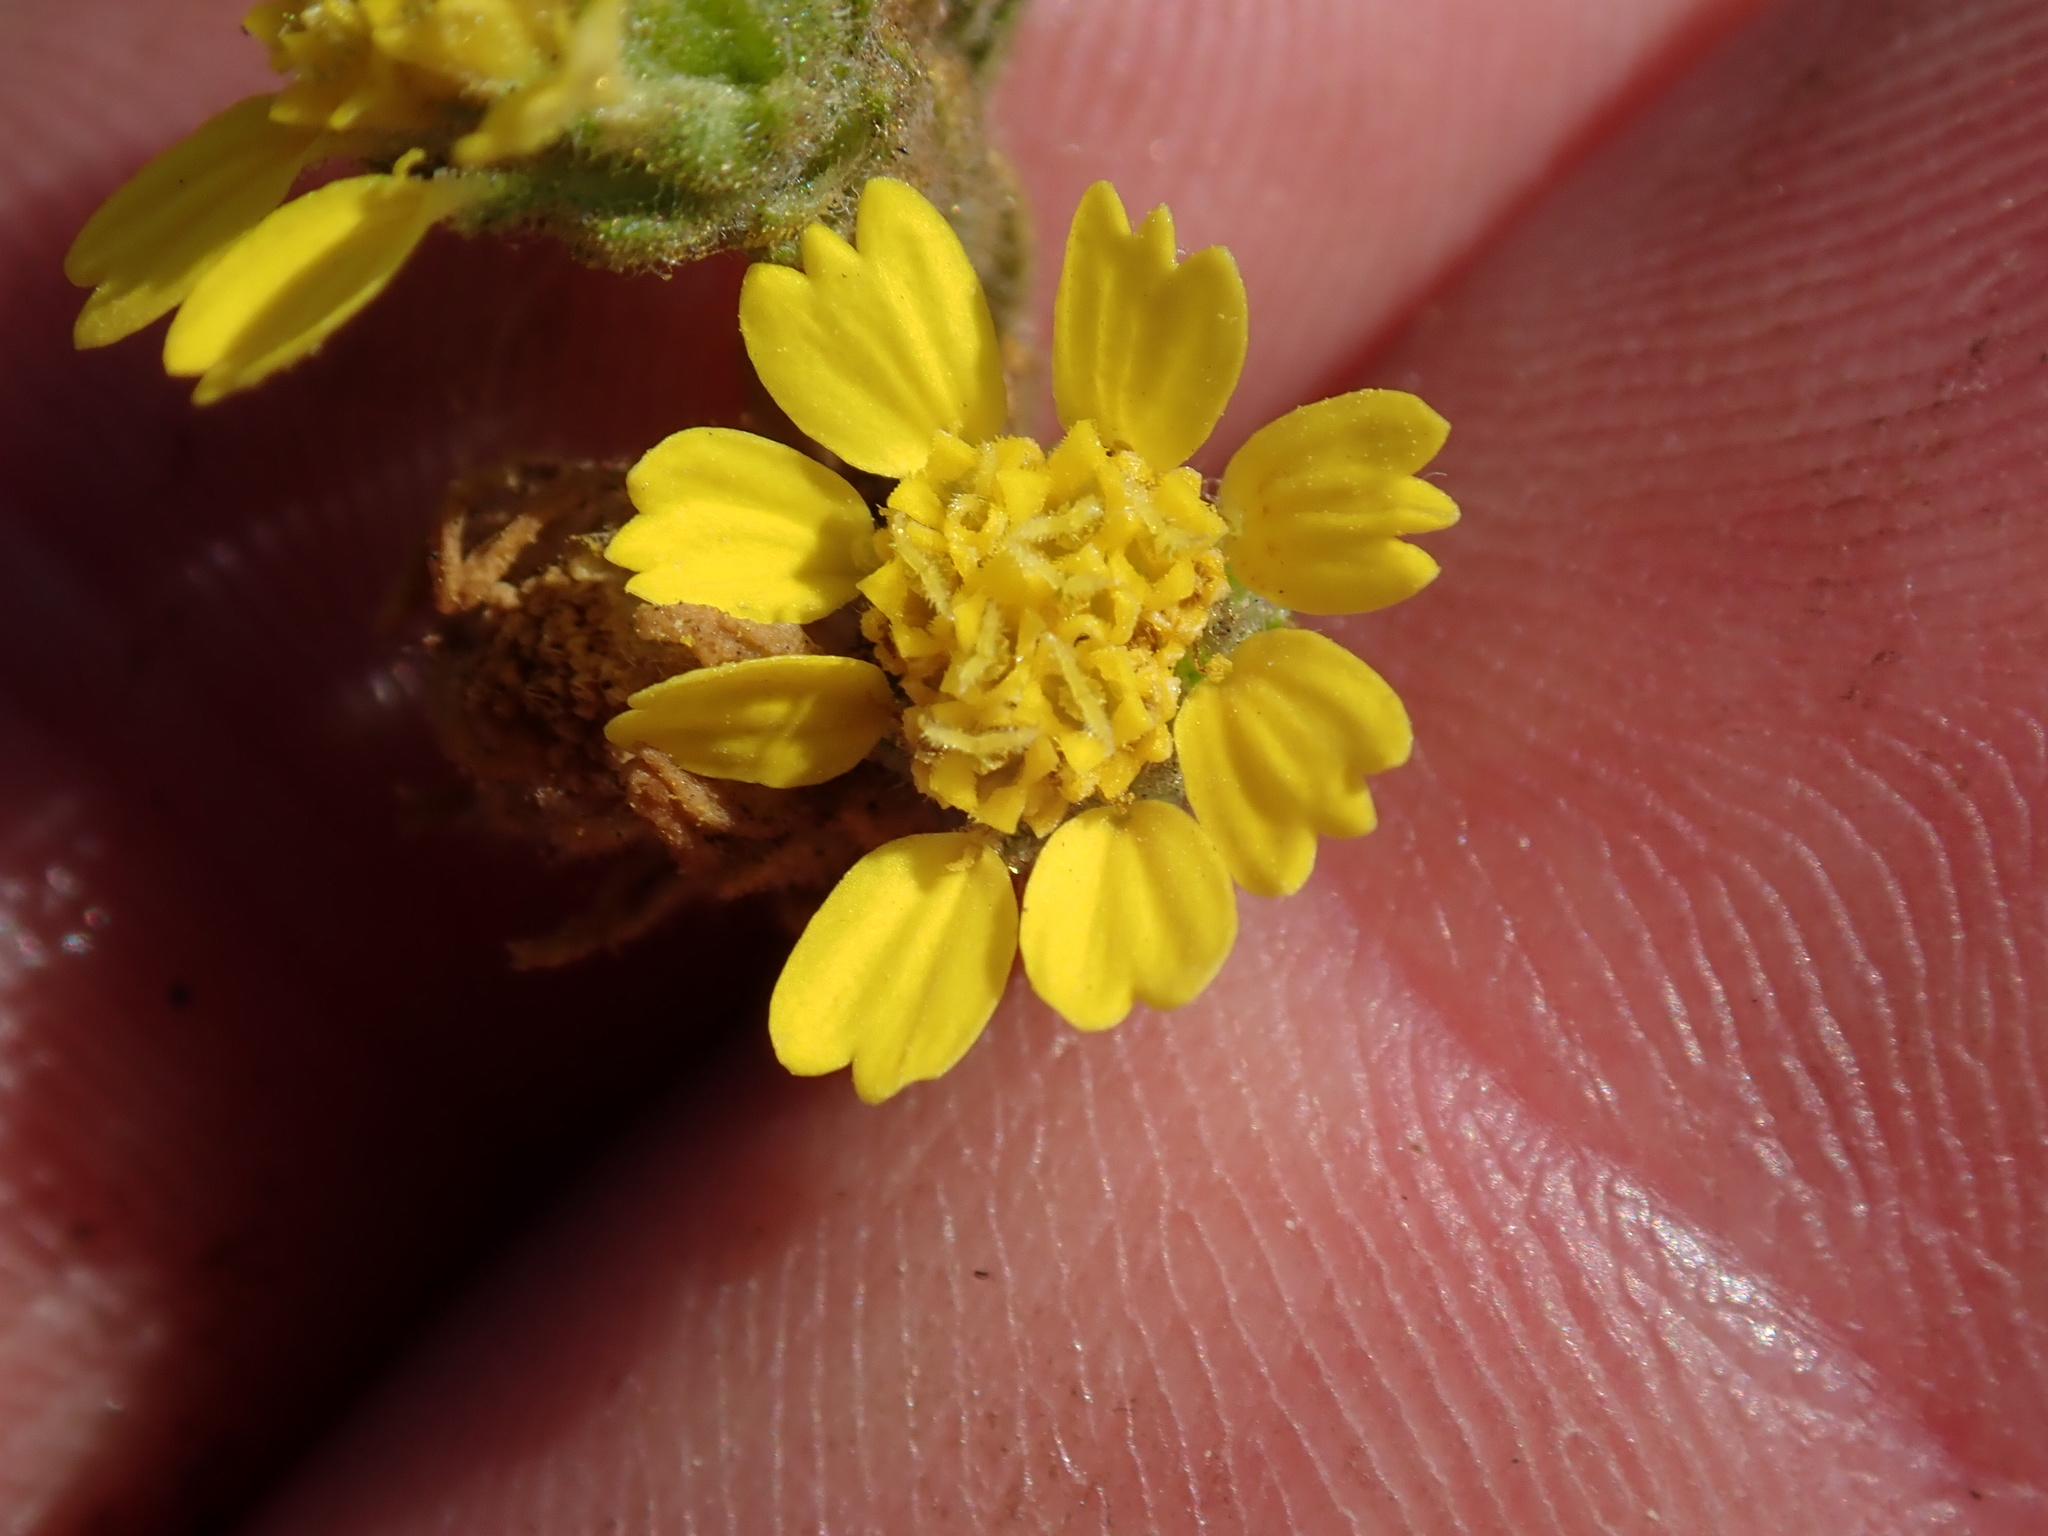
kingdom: Plantae
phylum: Tracheophyta
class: Magnoliopsida
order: Asterales
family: Asteraceae
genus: Deinandra
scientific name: Deinandra bacigalupii
